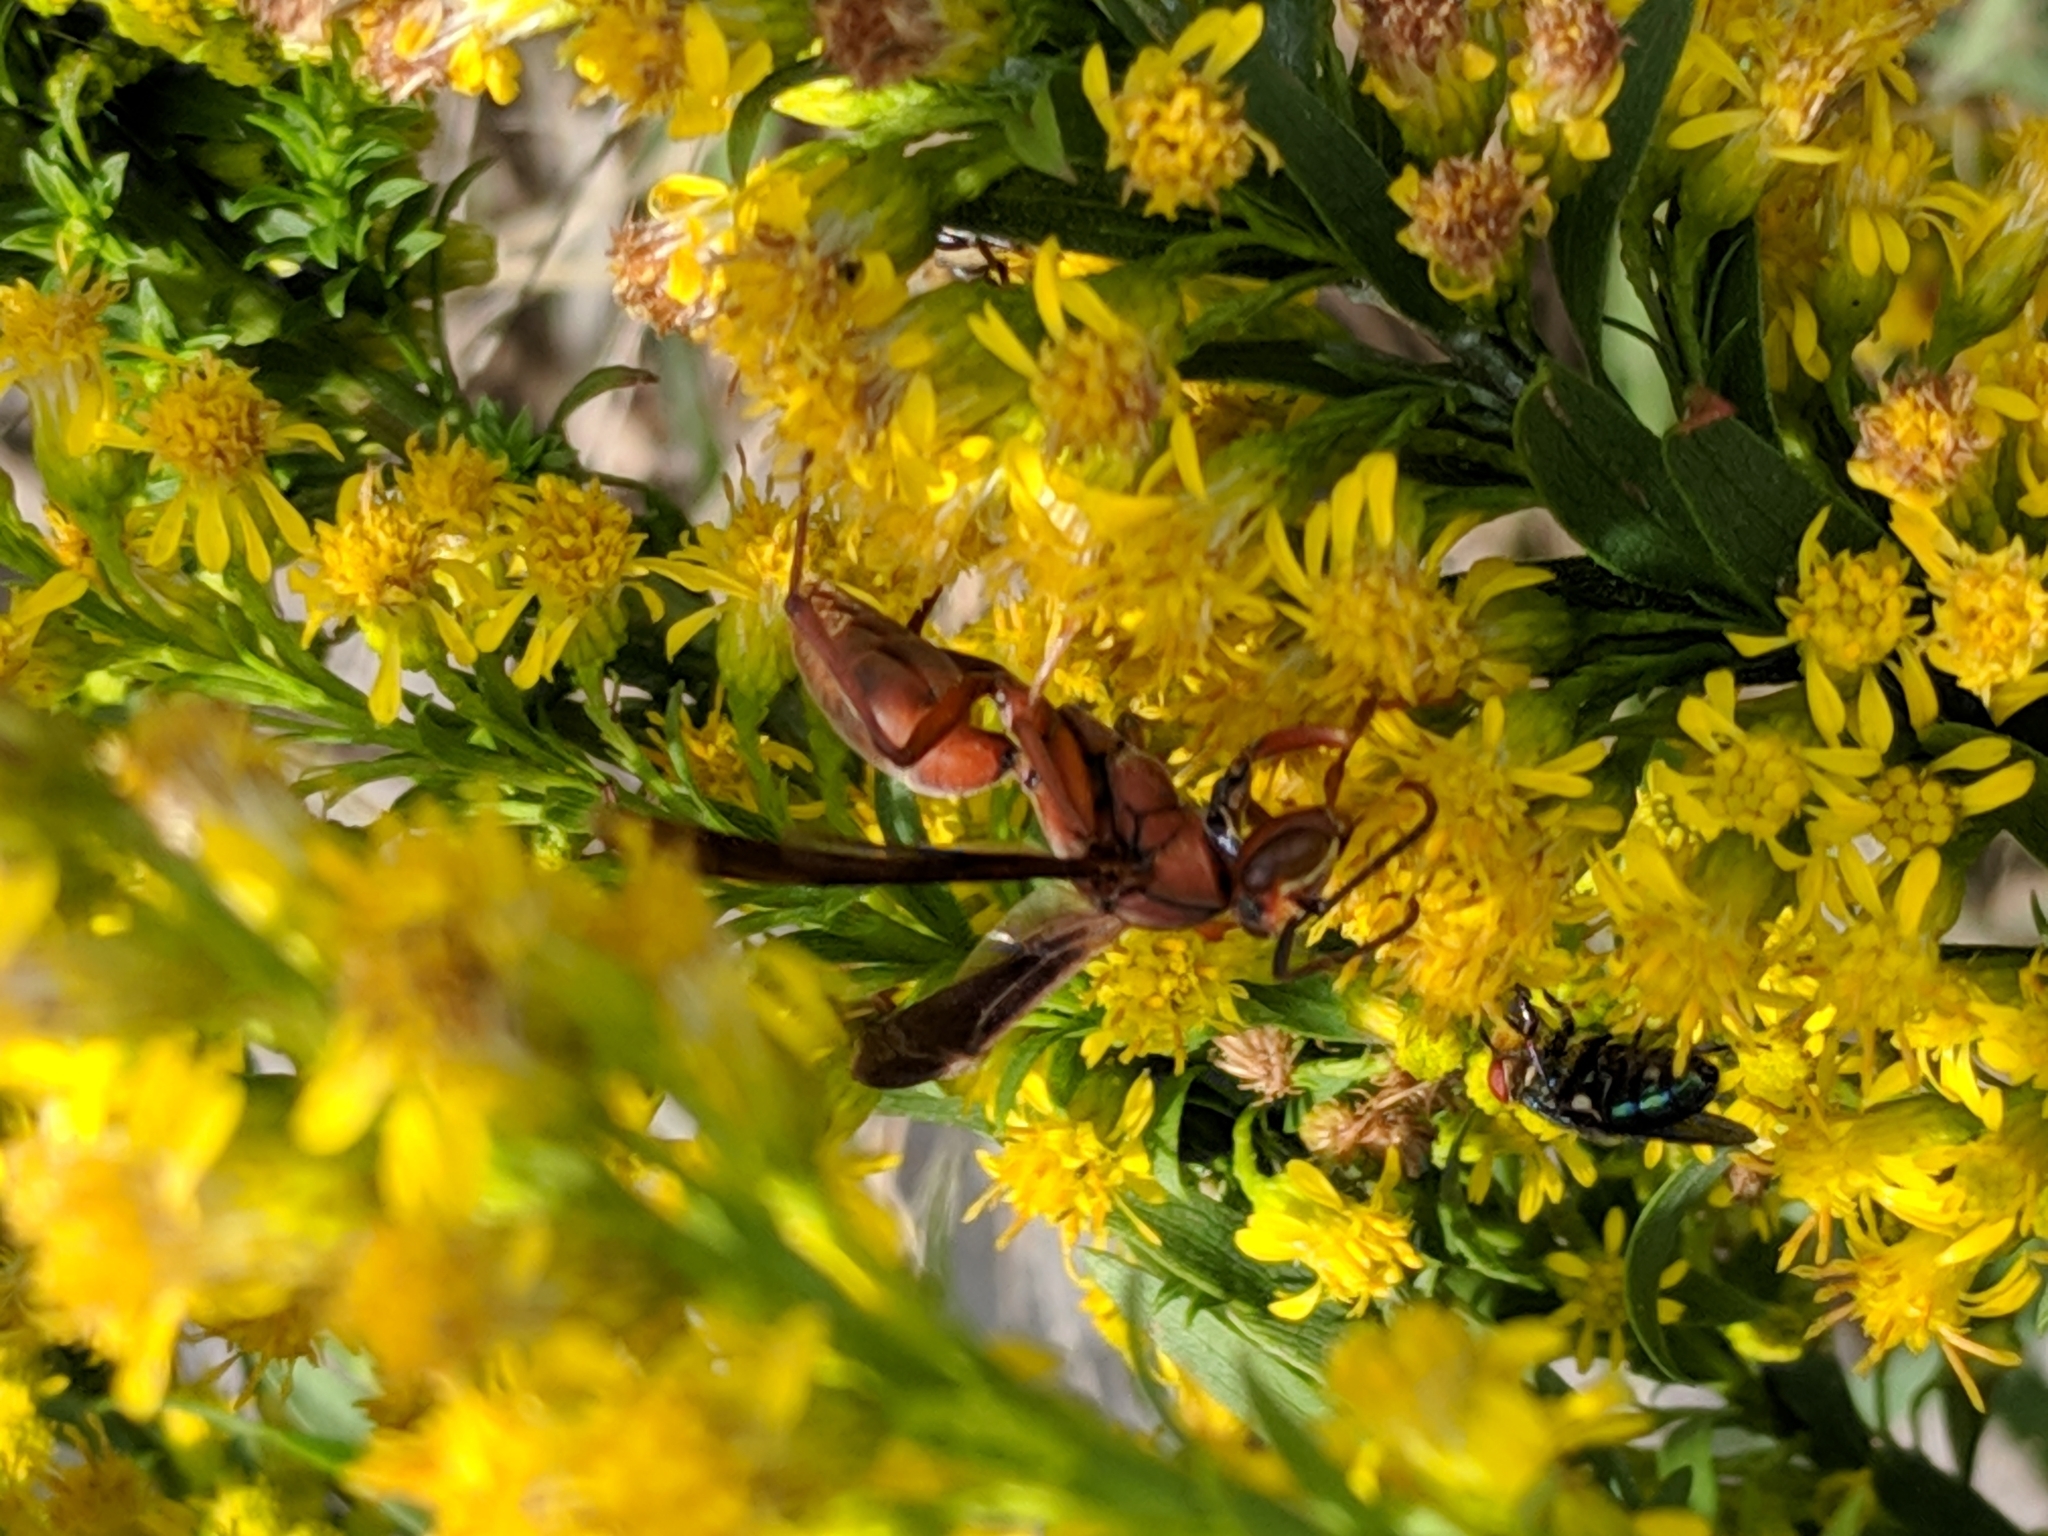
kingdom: Animalia
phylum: Arthropoda
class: Insecta
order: Hymenoptera
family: Eumenidae
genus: Polistes
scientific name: Polistes carolina
